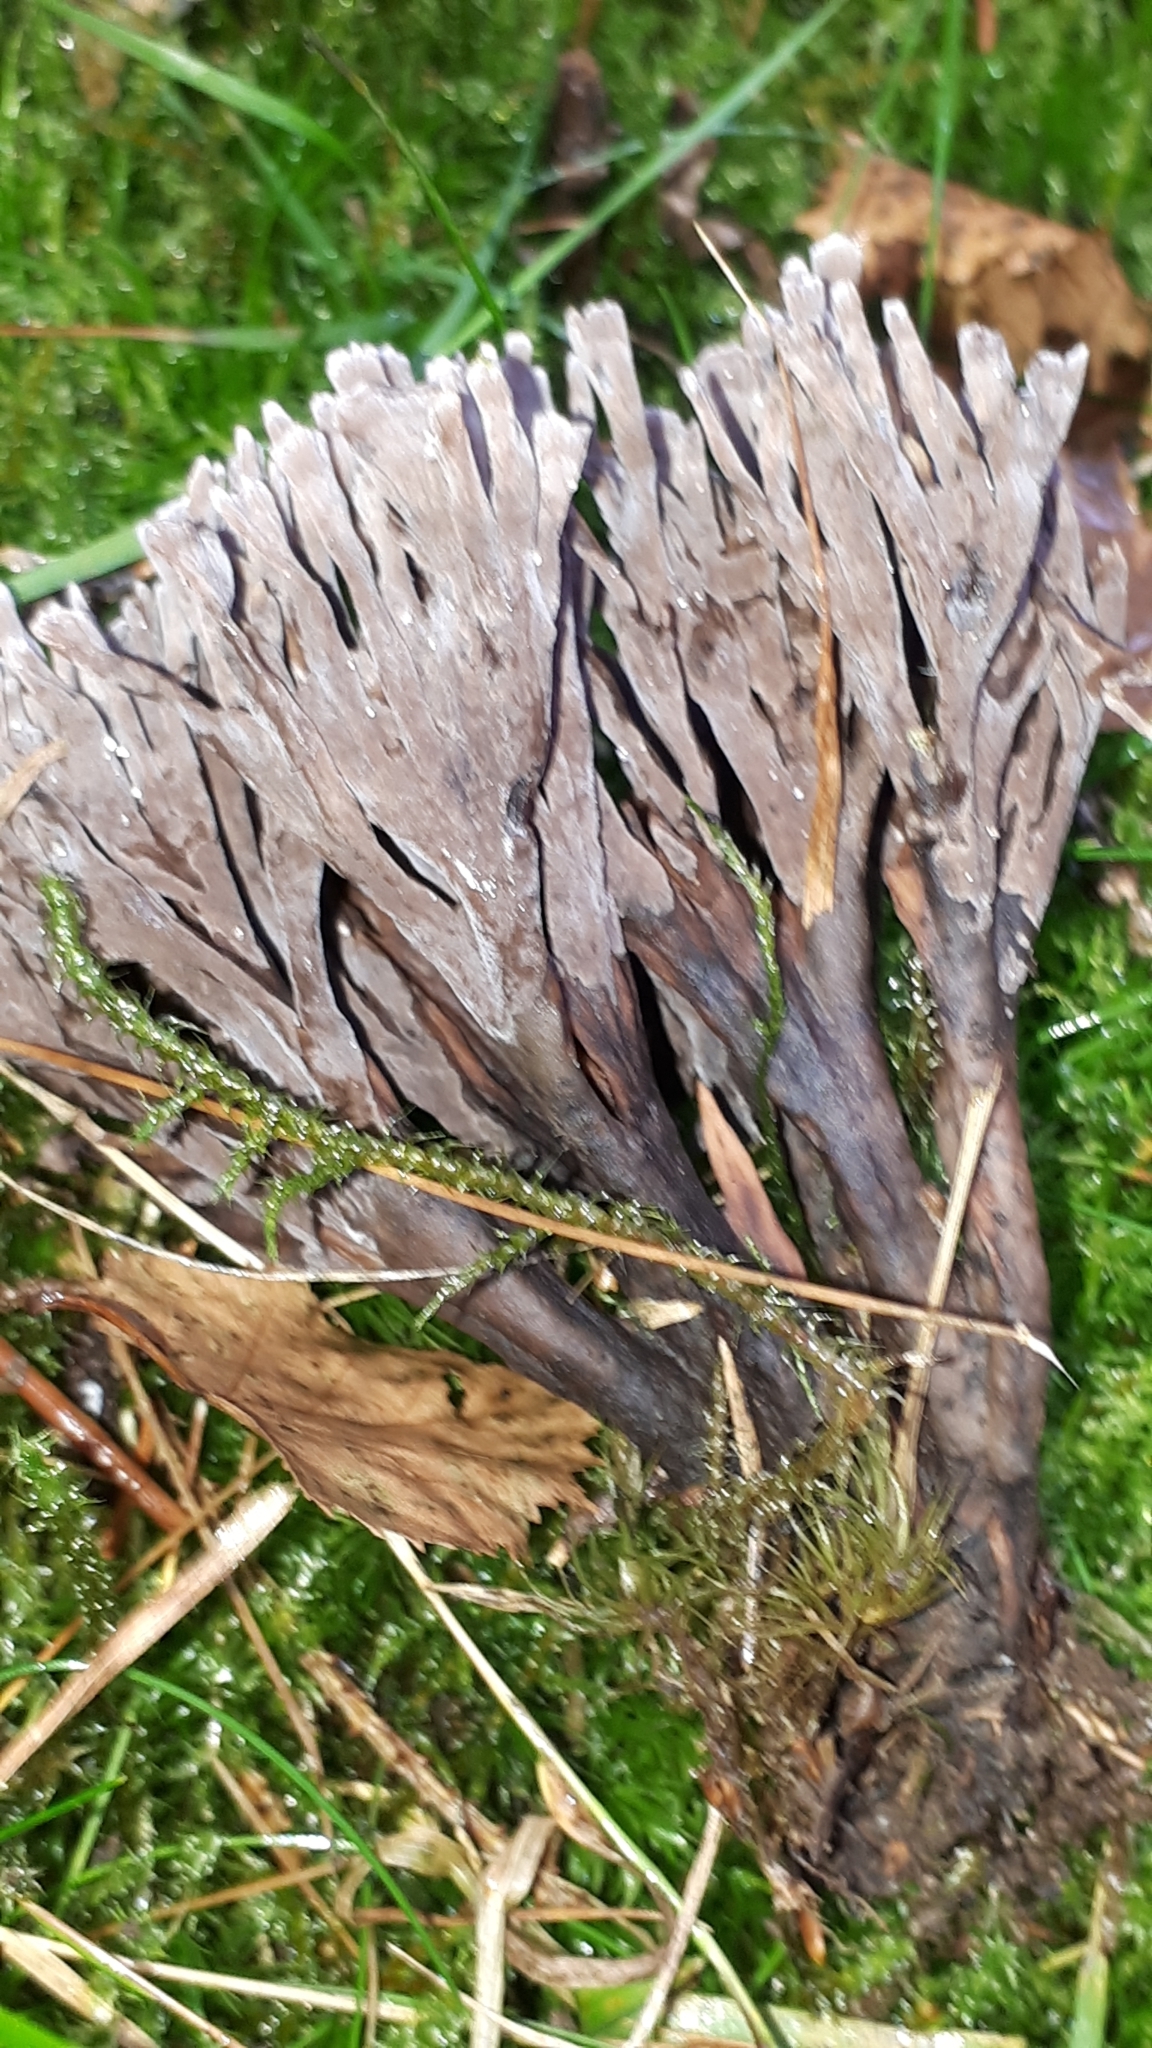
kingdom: Fungi
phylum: Basidiomycota
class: Agaricomycetes
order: Thelephorales
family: Thelephoraceae
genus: Thelephora
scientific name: Thelephora anthocephala
